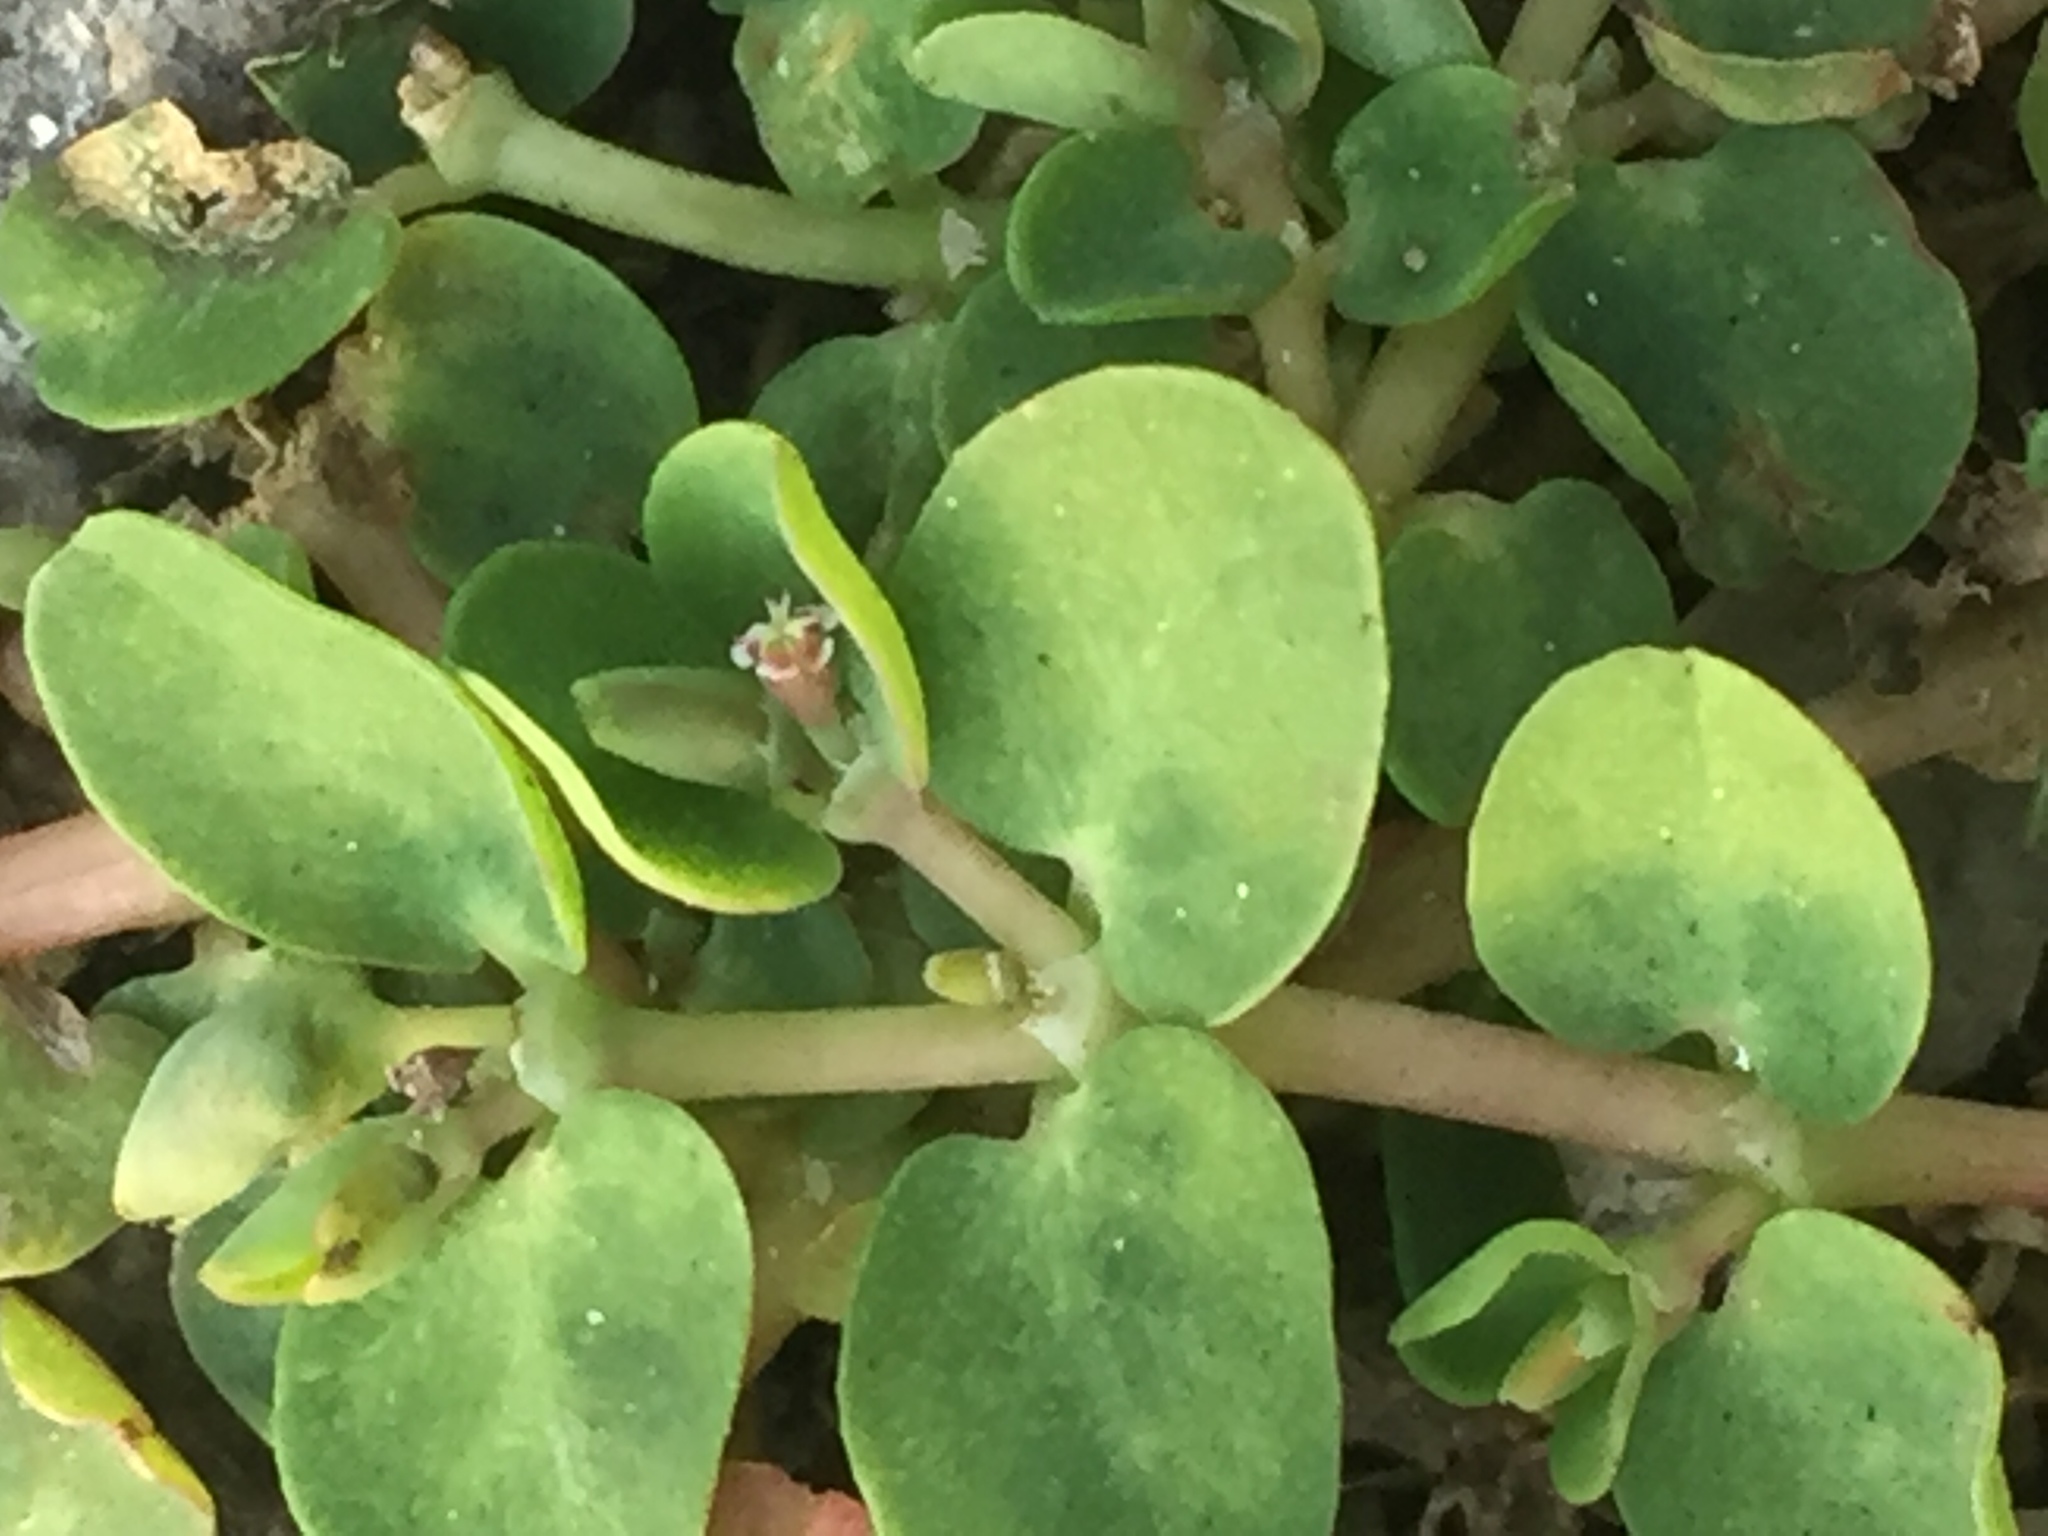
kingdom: Plantae
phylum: Tracheophyta
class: Magnoliopsida
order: Malpighiales
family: Euphorbiaceae
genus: Euphorbia
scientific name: Euphorbia serpens
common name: Matted sandmat
